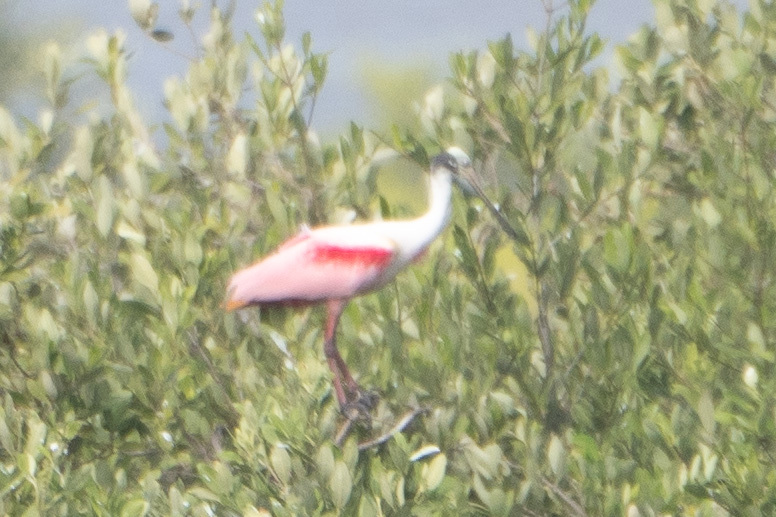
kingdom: Animalia
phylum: Chordata
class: Aves
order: Pelecaniformes
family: Threskiornithidae
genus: Platalea
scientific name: Platalea ajaja
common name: Roseate spoonbill
